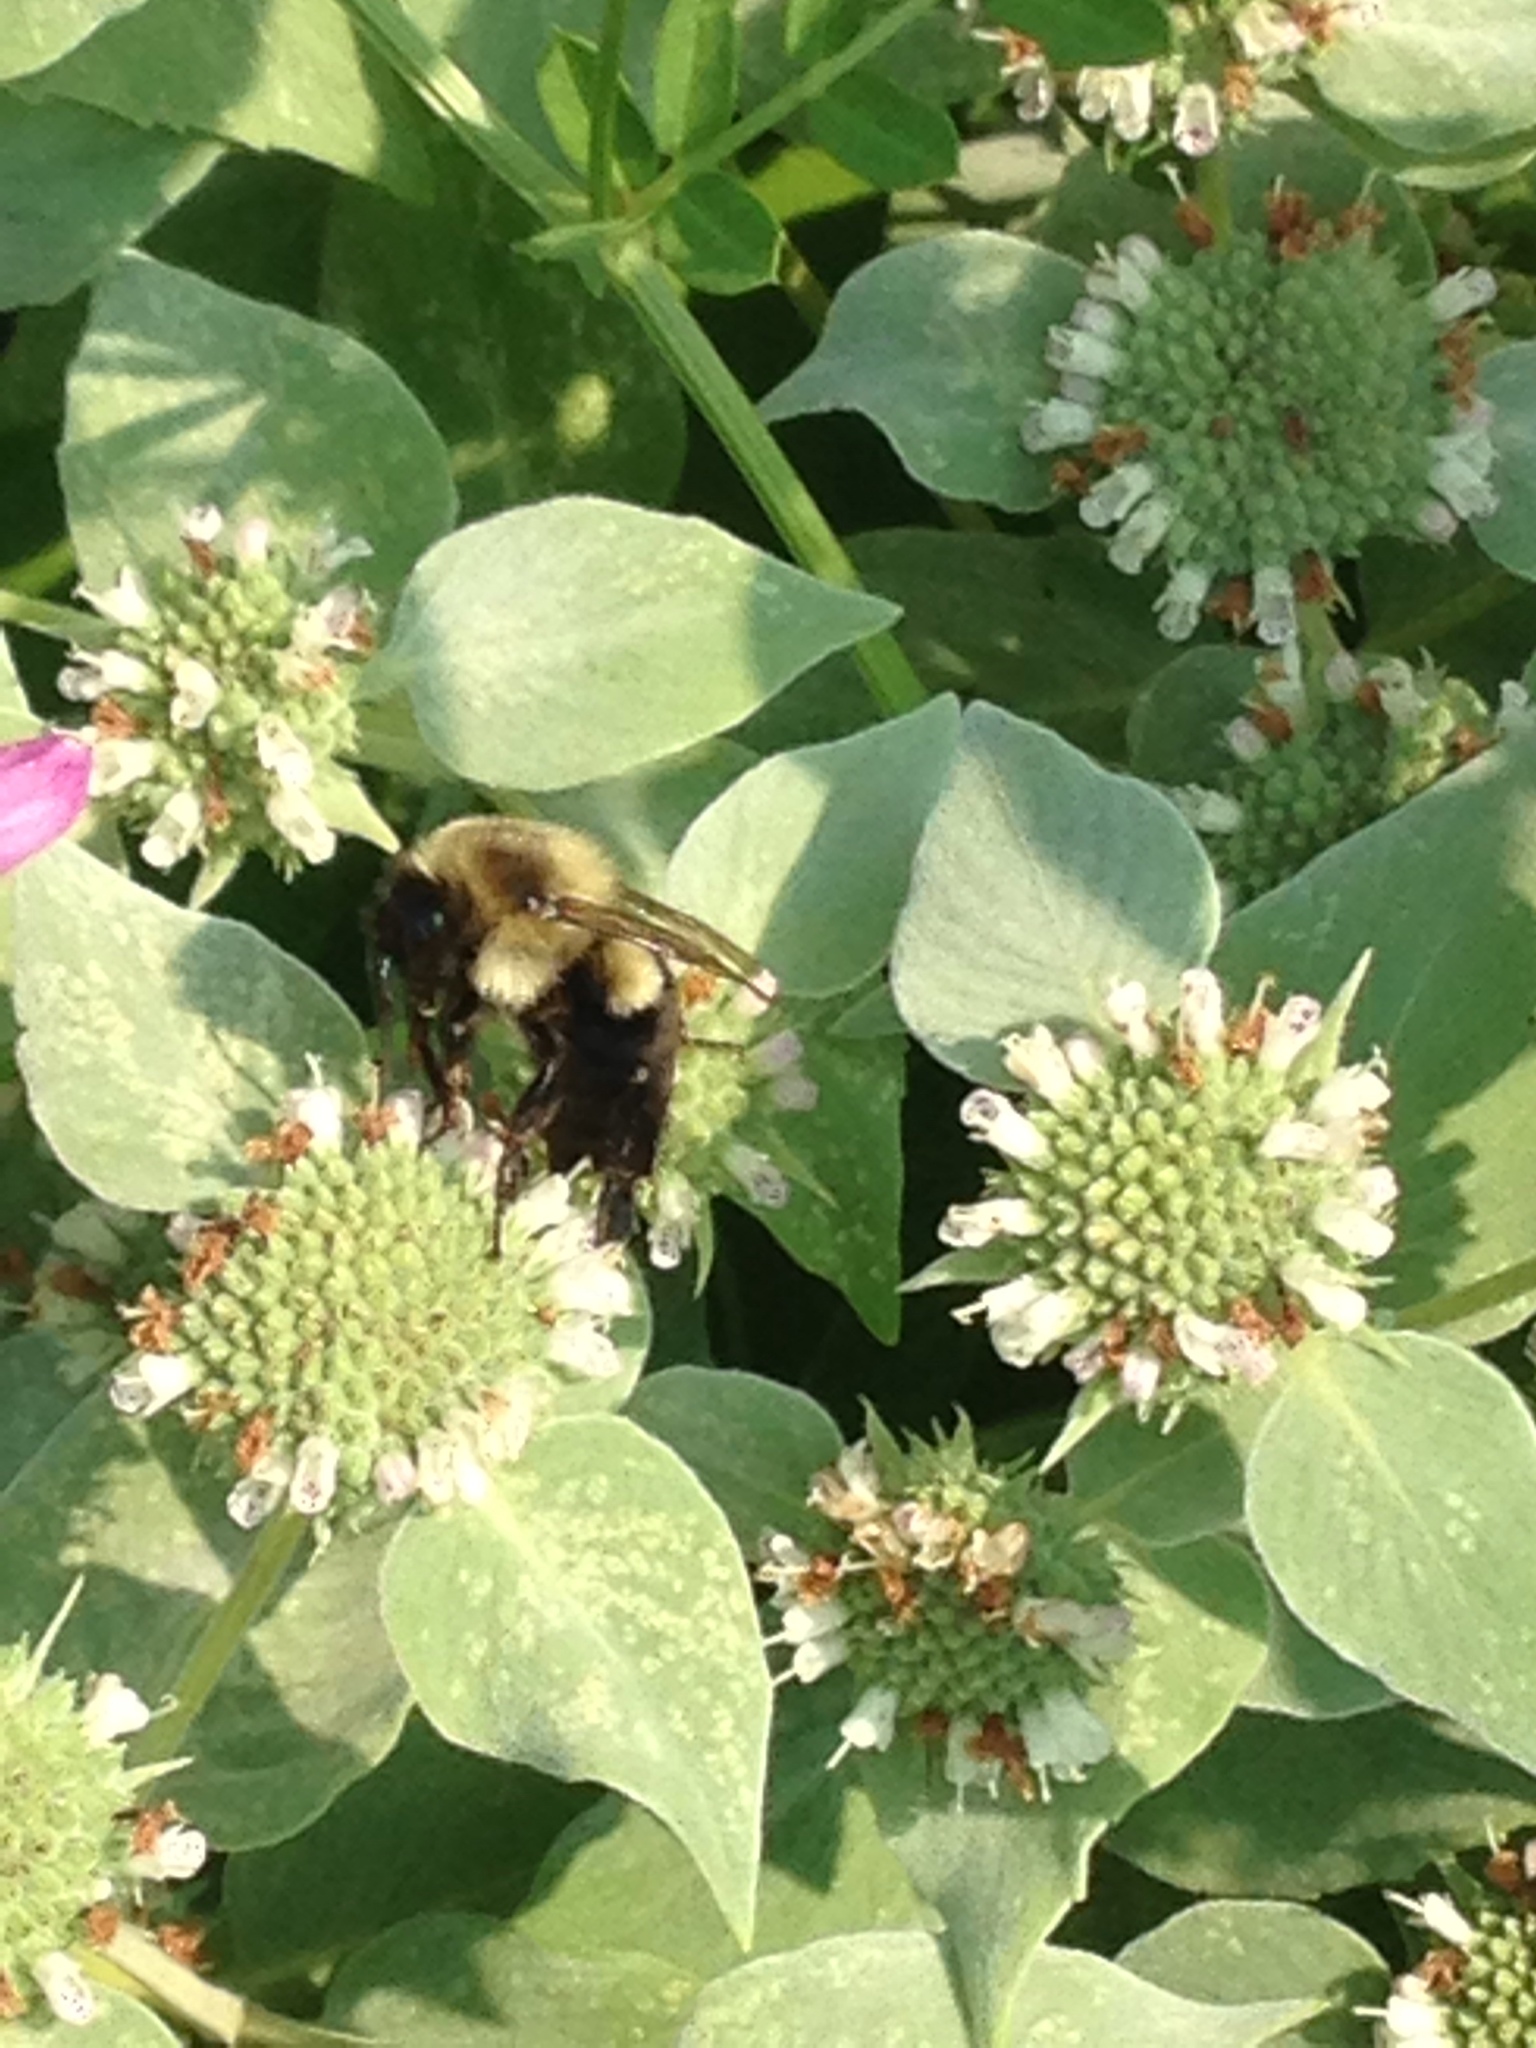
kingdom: Animalia
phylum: Arthropoda
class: Insecta
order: Hymenoptera
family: Apidae
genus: Bombus
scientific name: Bombus impatiens
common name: Common eastern bumble bee
